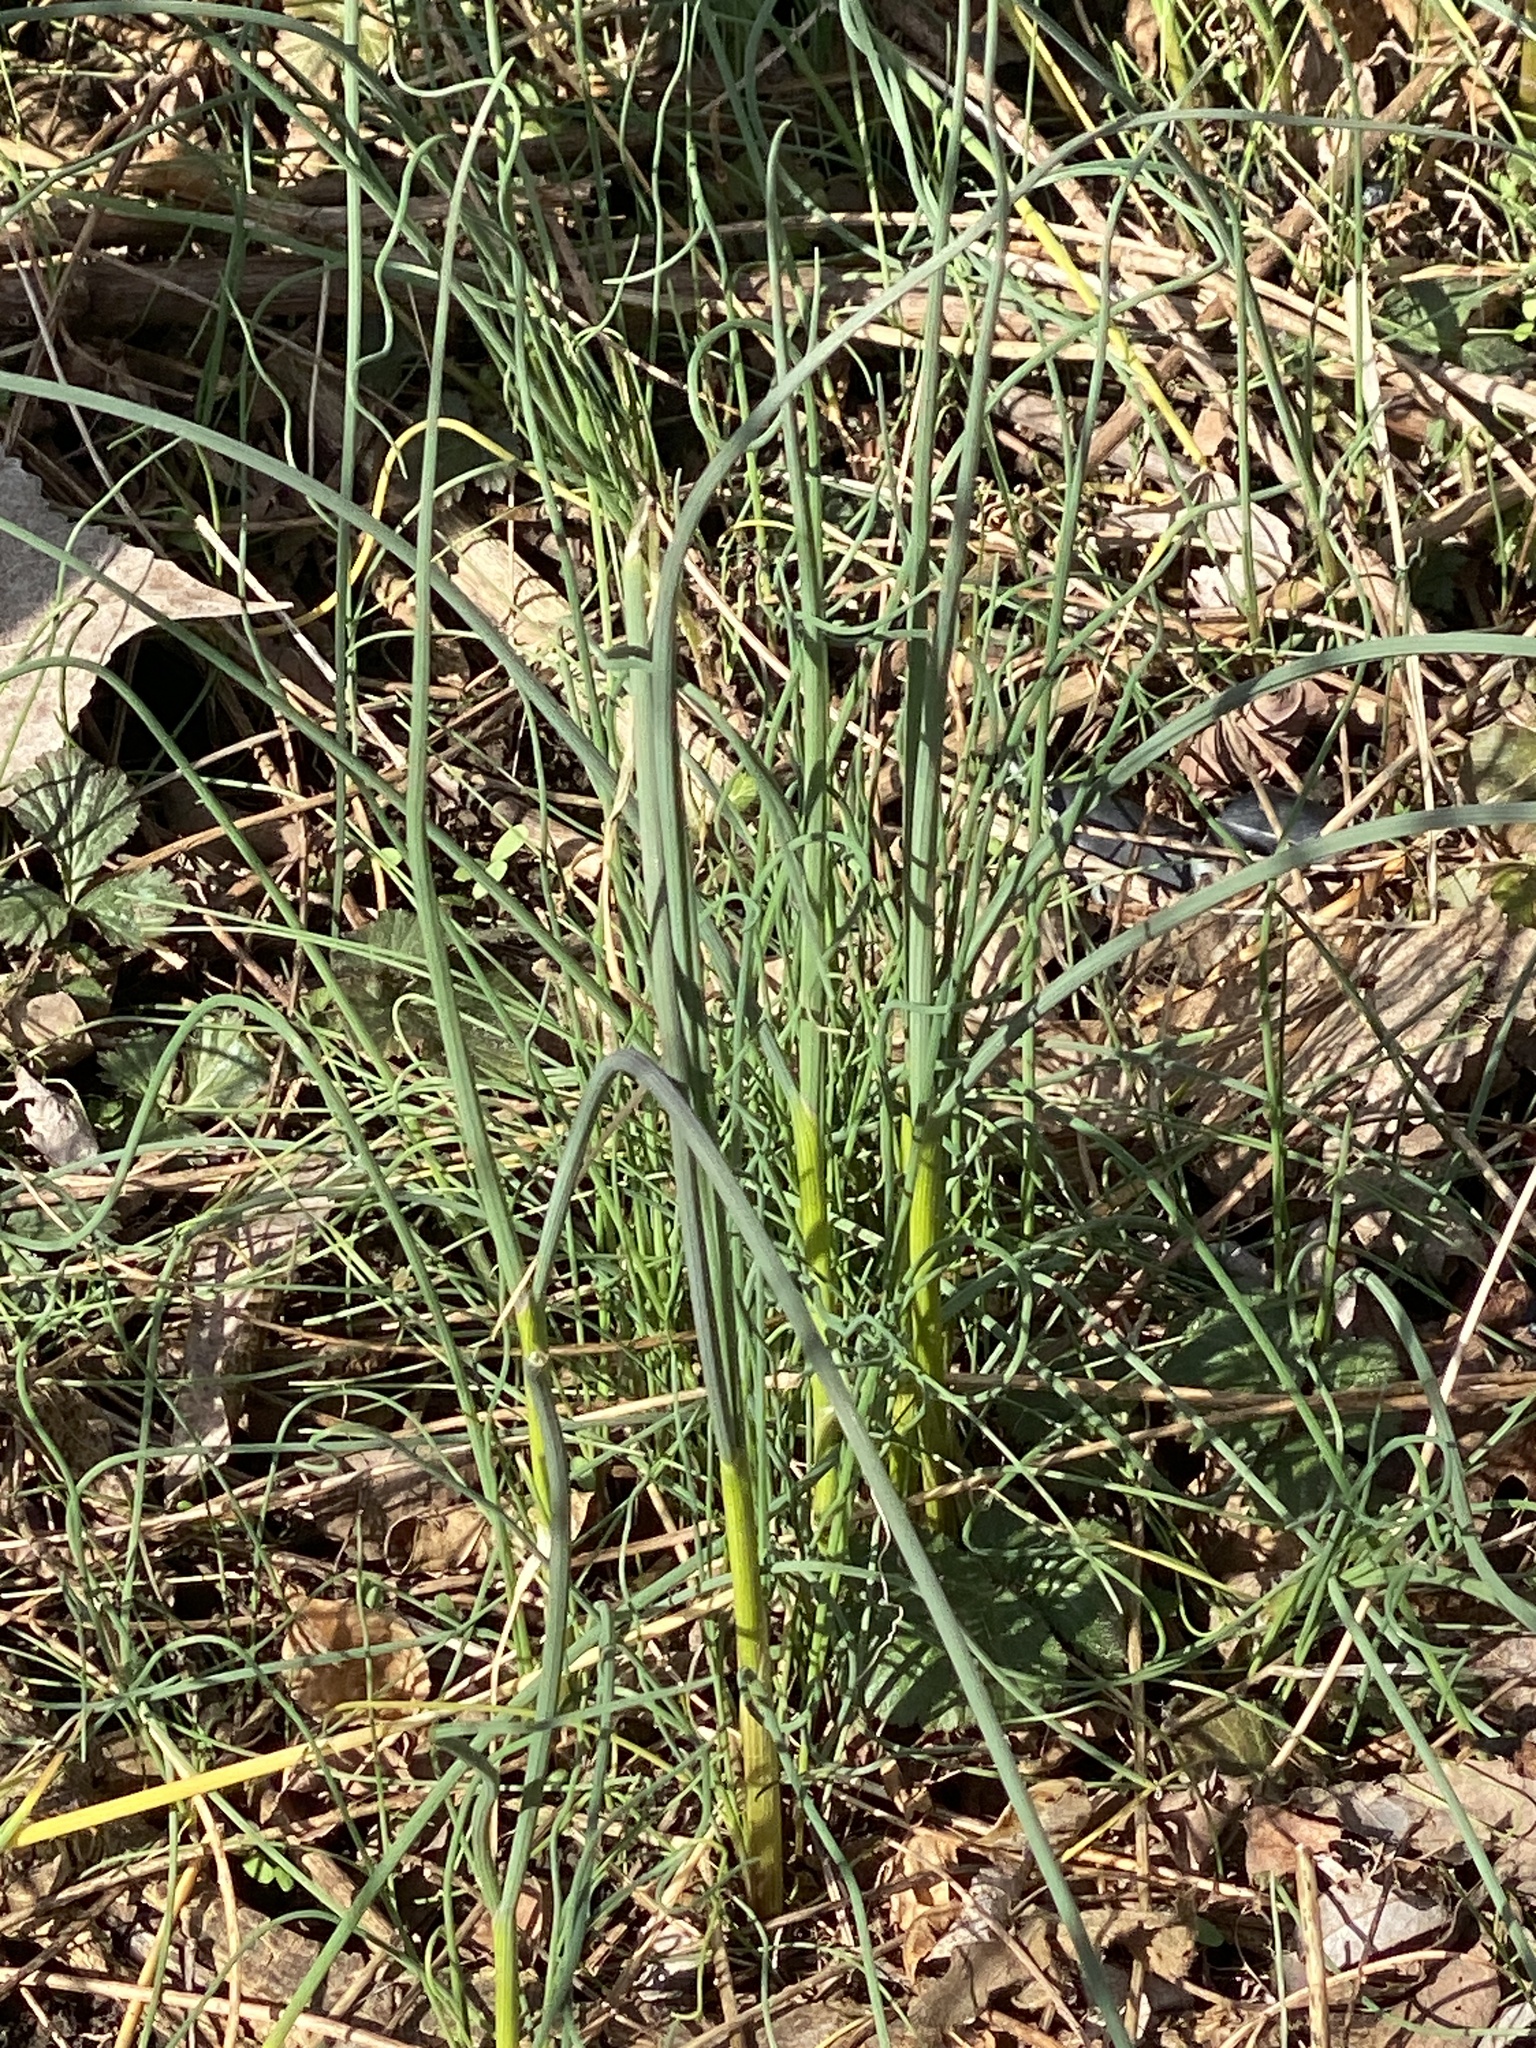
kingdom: Plantae
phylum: Tracheophyta
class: Liliopsida
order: Asparagales
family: Amaryllidaceae
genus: Allium
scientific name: Allium vineale
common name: Crow garlic
